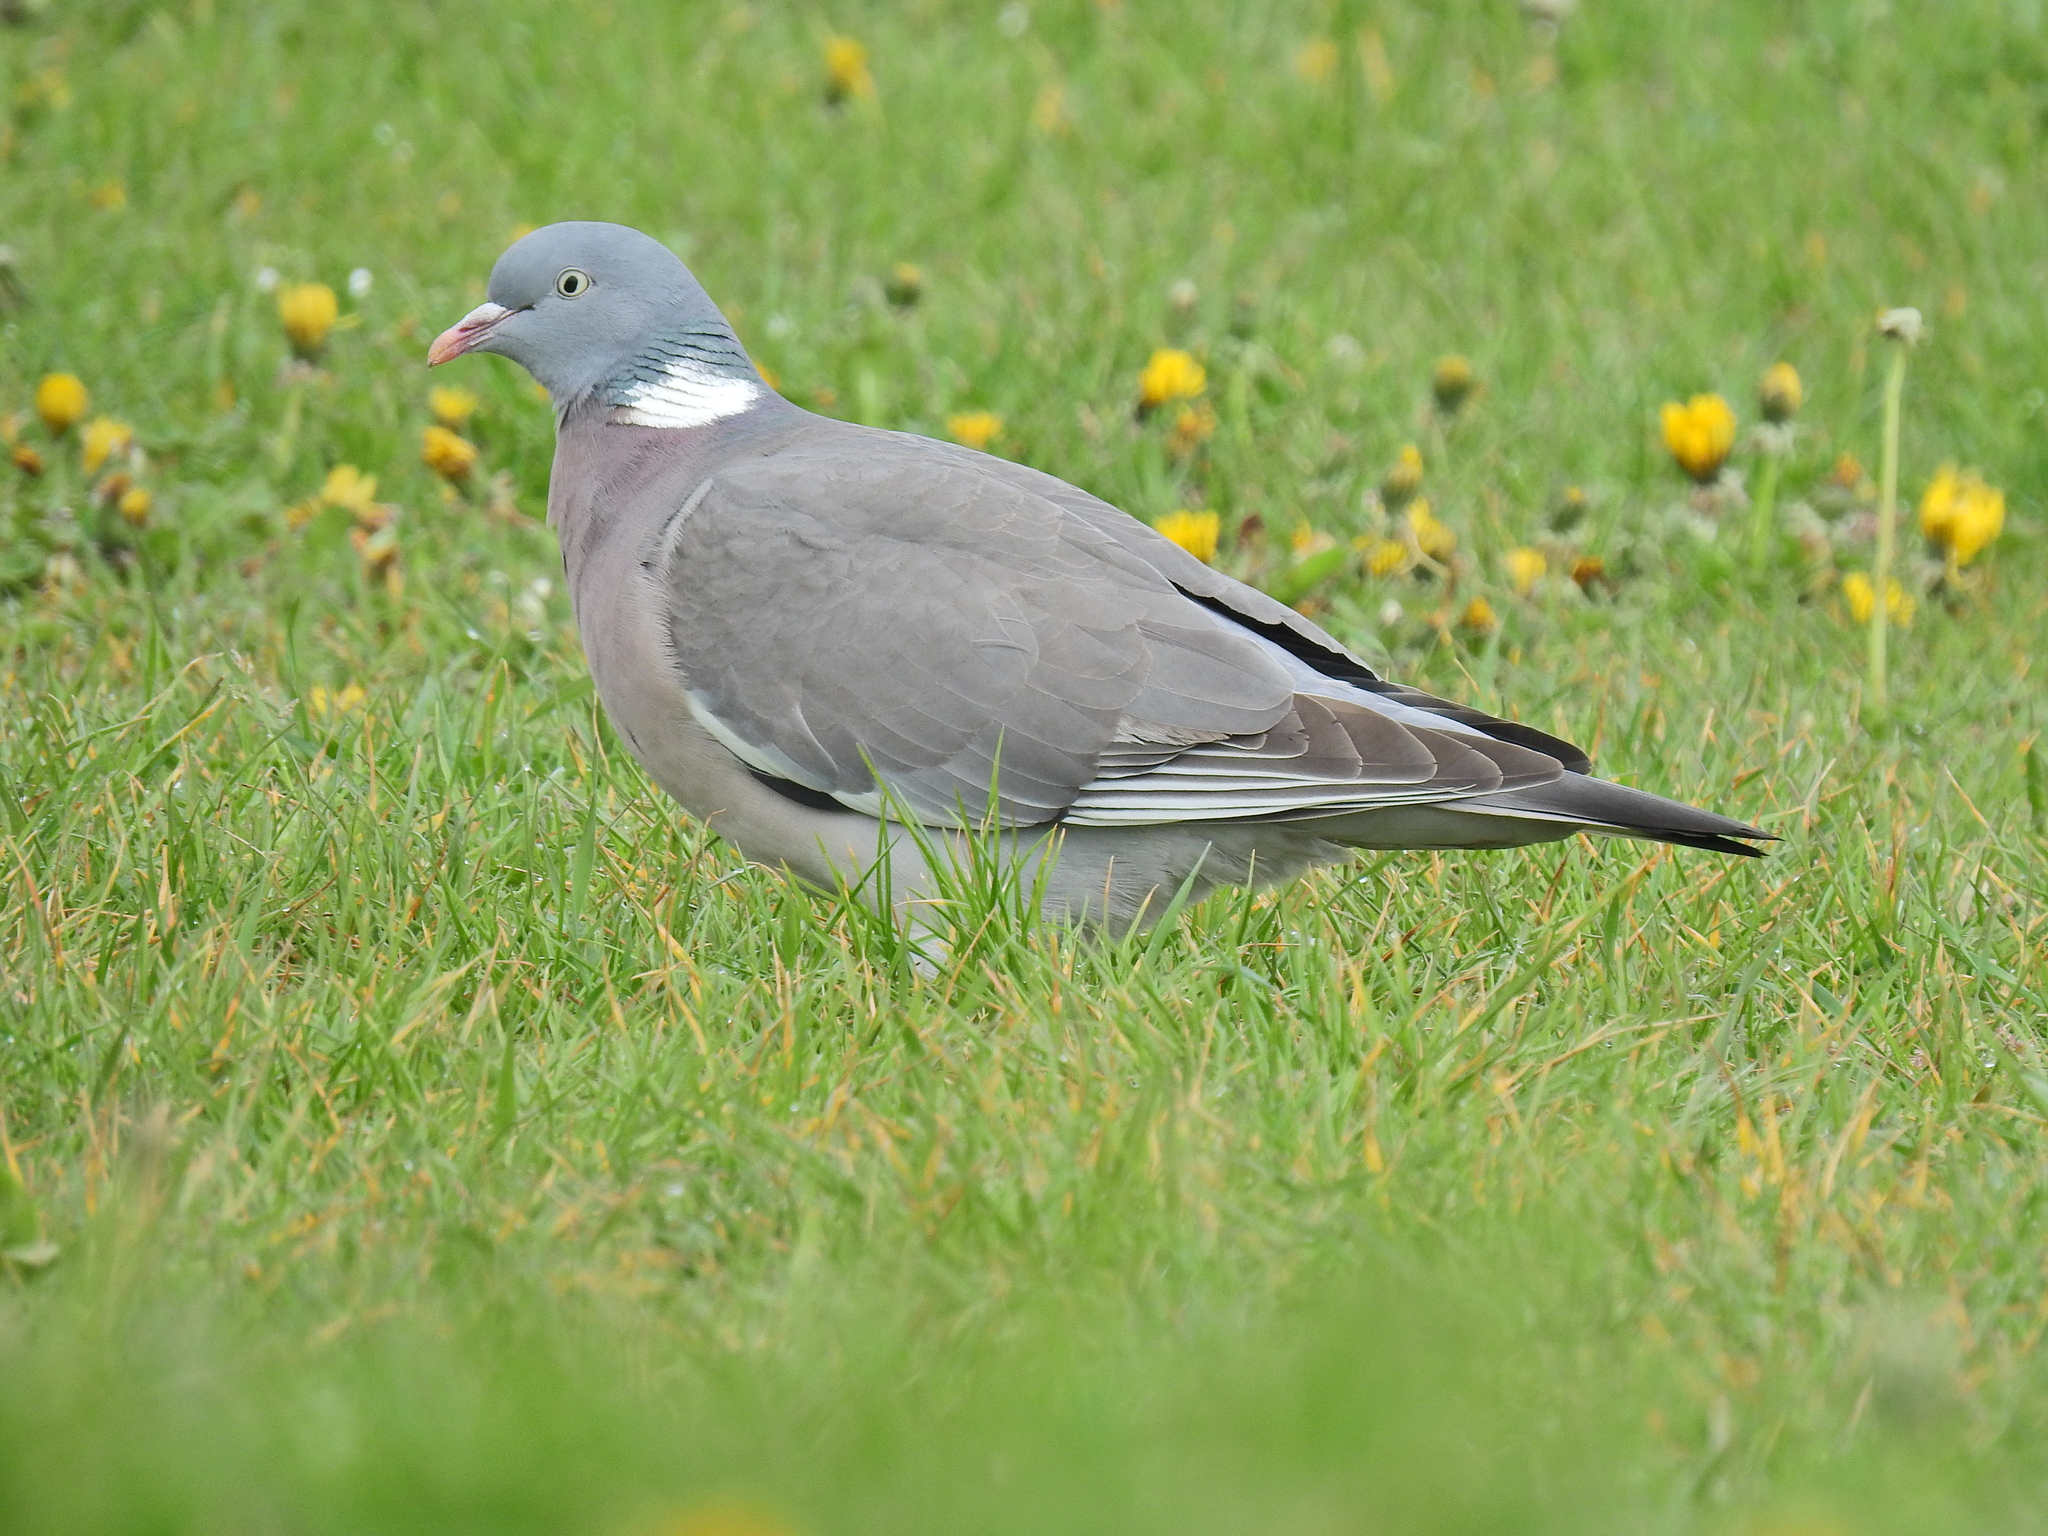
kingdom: Animalia
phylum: Chordata
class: Aves
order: Columbiformes
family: Columbidae
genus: Columba
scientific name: Columba palumbus
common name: Common wood pigeon
